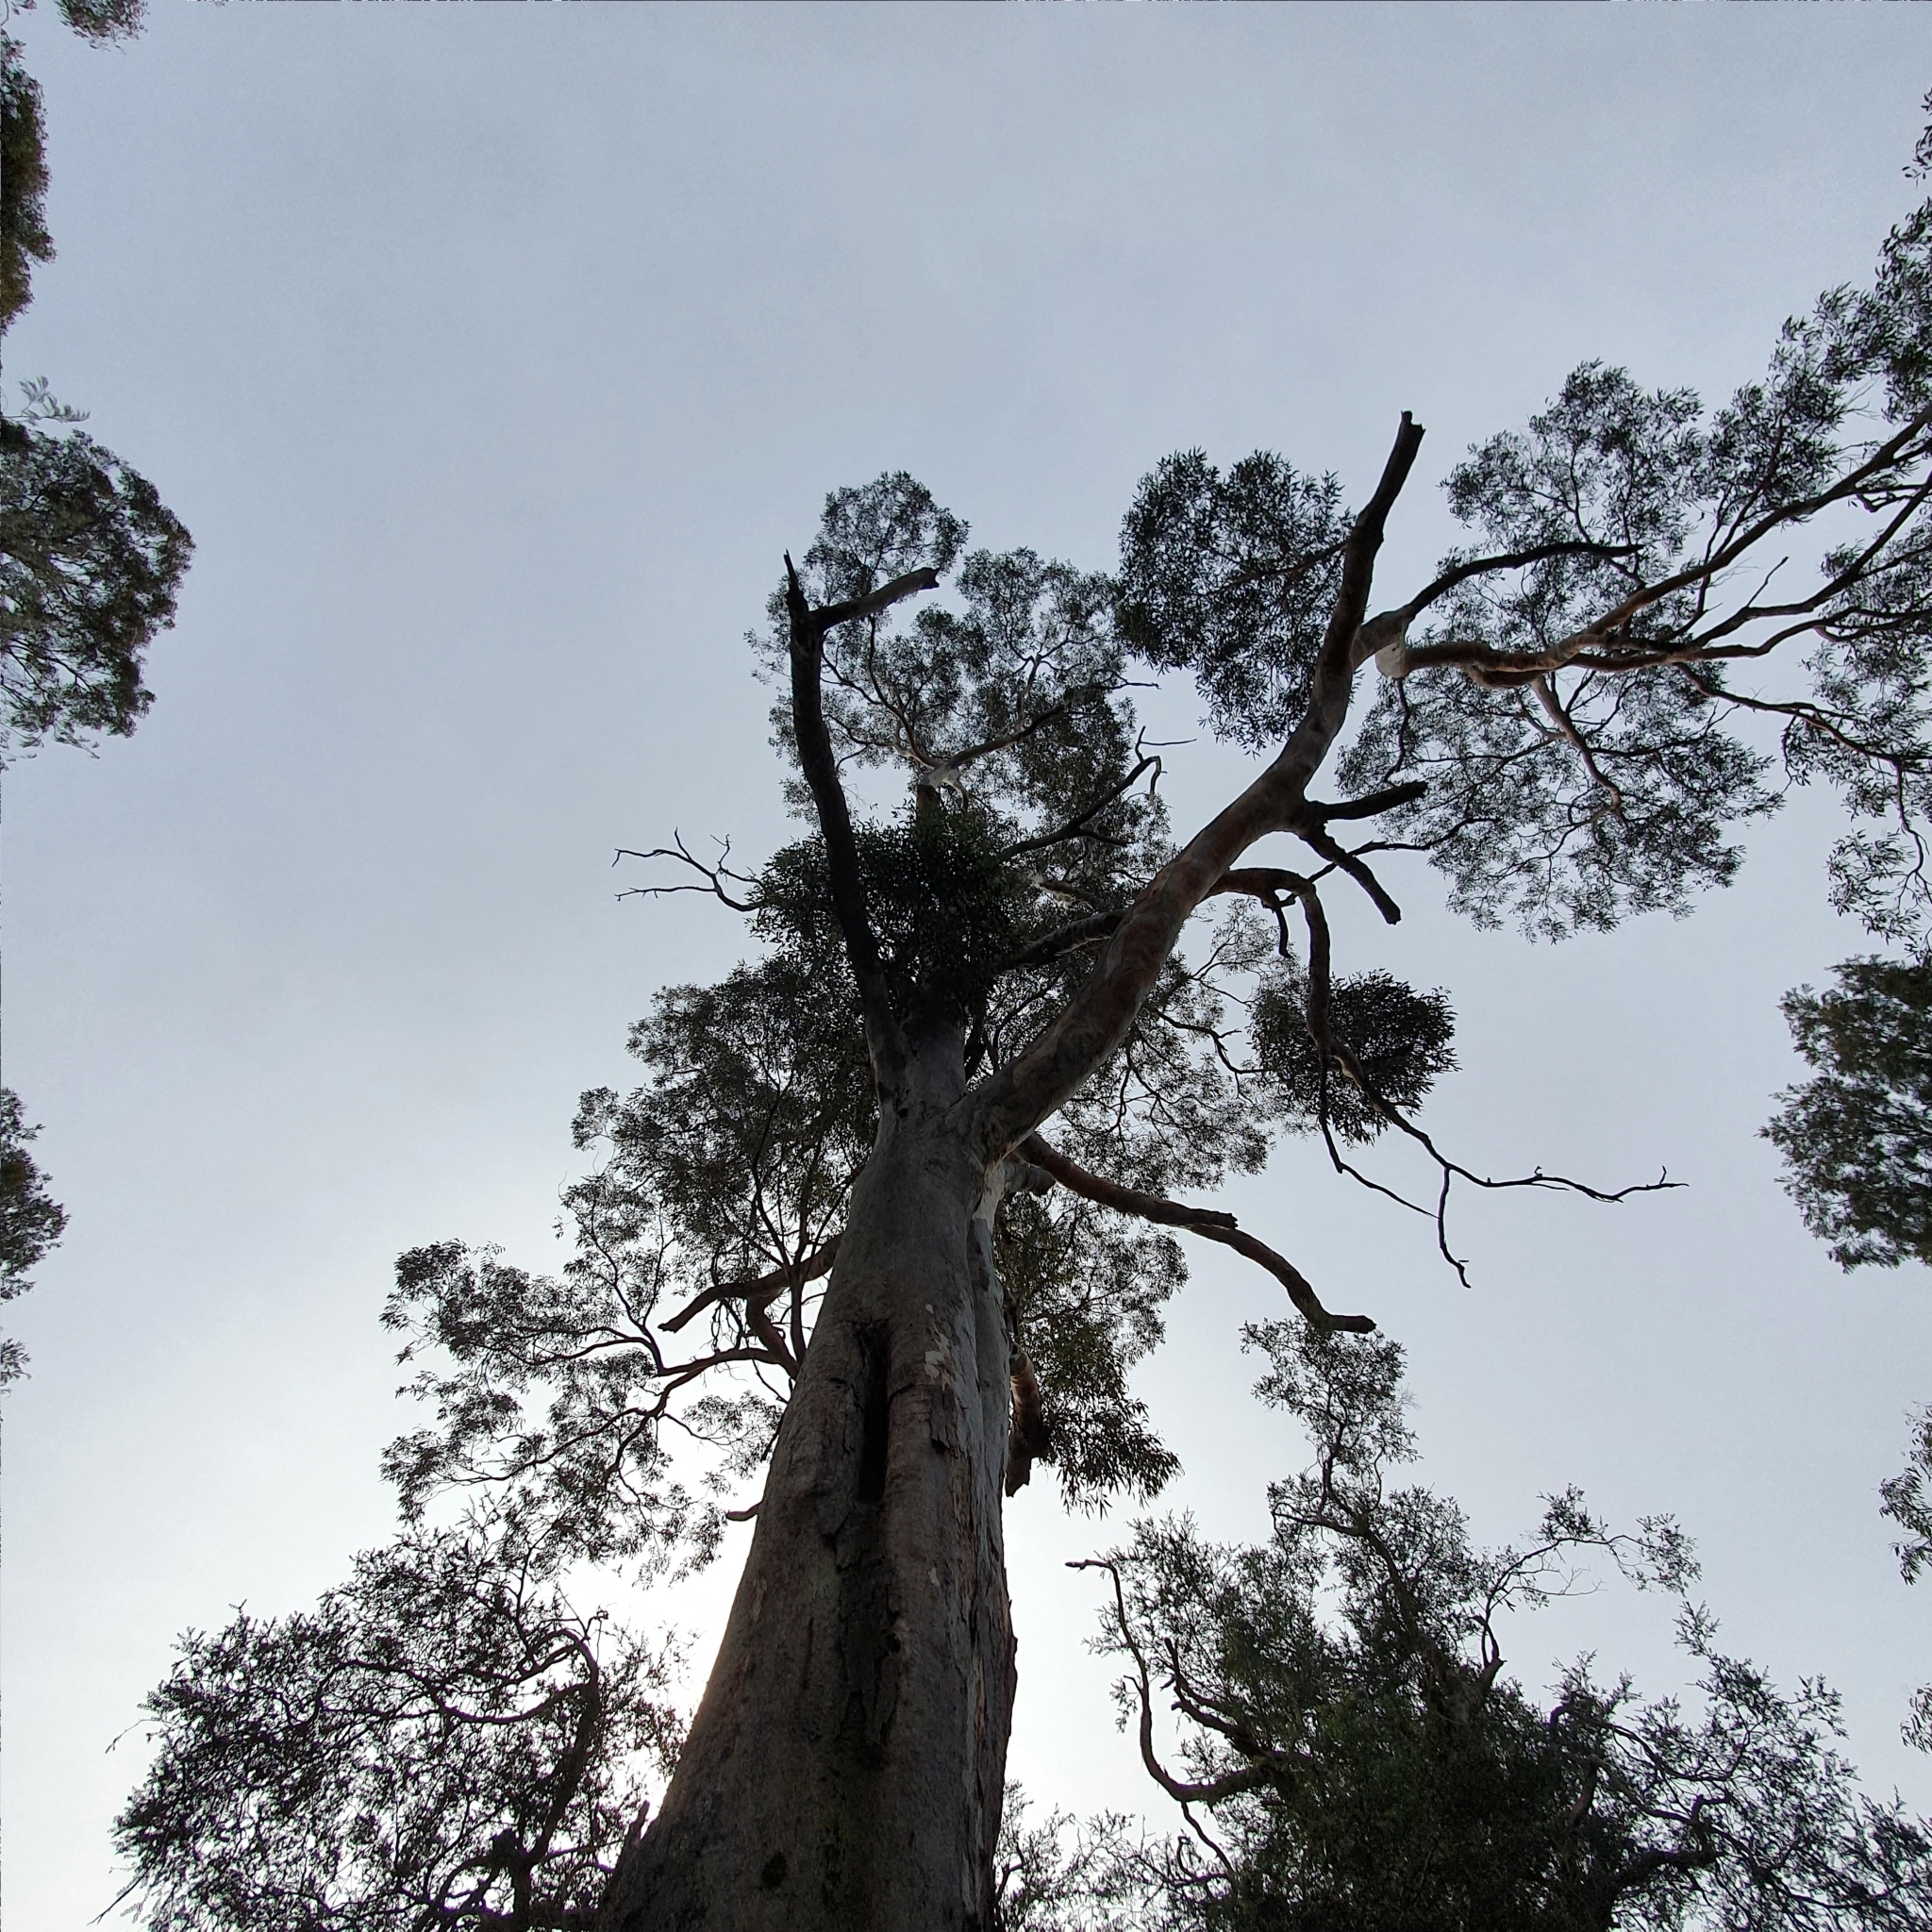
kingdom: Plantae
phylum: Tracheophyta
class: Magnoliopsida
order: Myrtales
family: Myrtaceae
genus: Eucalyptus
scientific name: Eucalyptus punctata
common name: Gray gum
